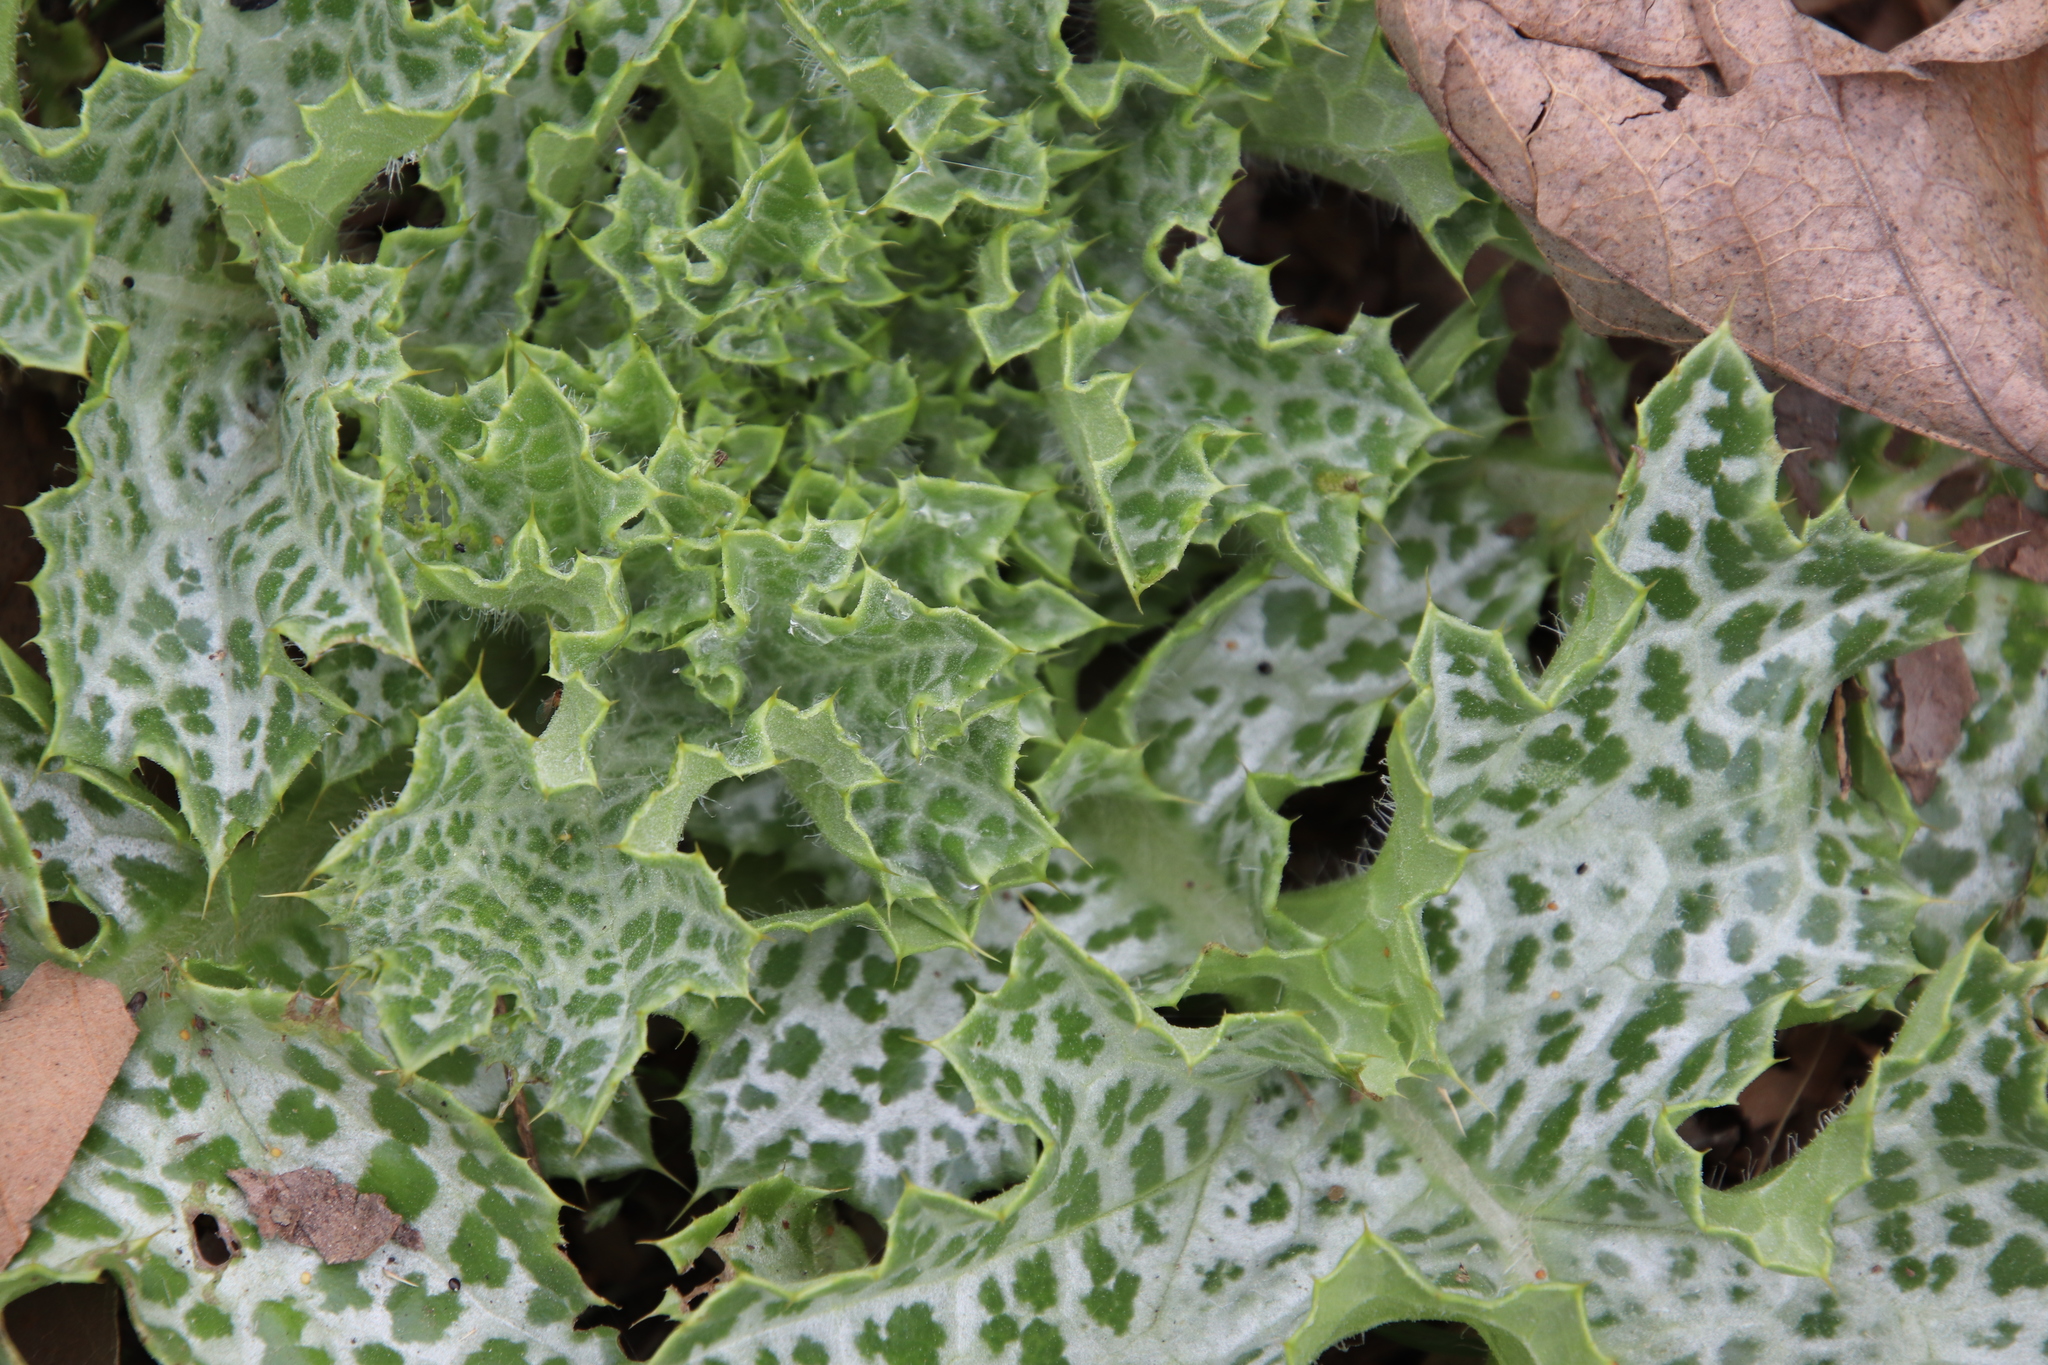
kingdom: Plantae
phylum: Tracheophyta
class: Magnoliopsida
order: Asterales
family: Asteraceae
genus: Silybum
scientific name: Silybum marianum
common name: Milk thistle
